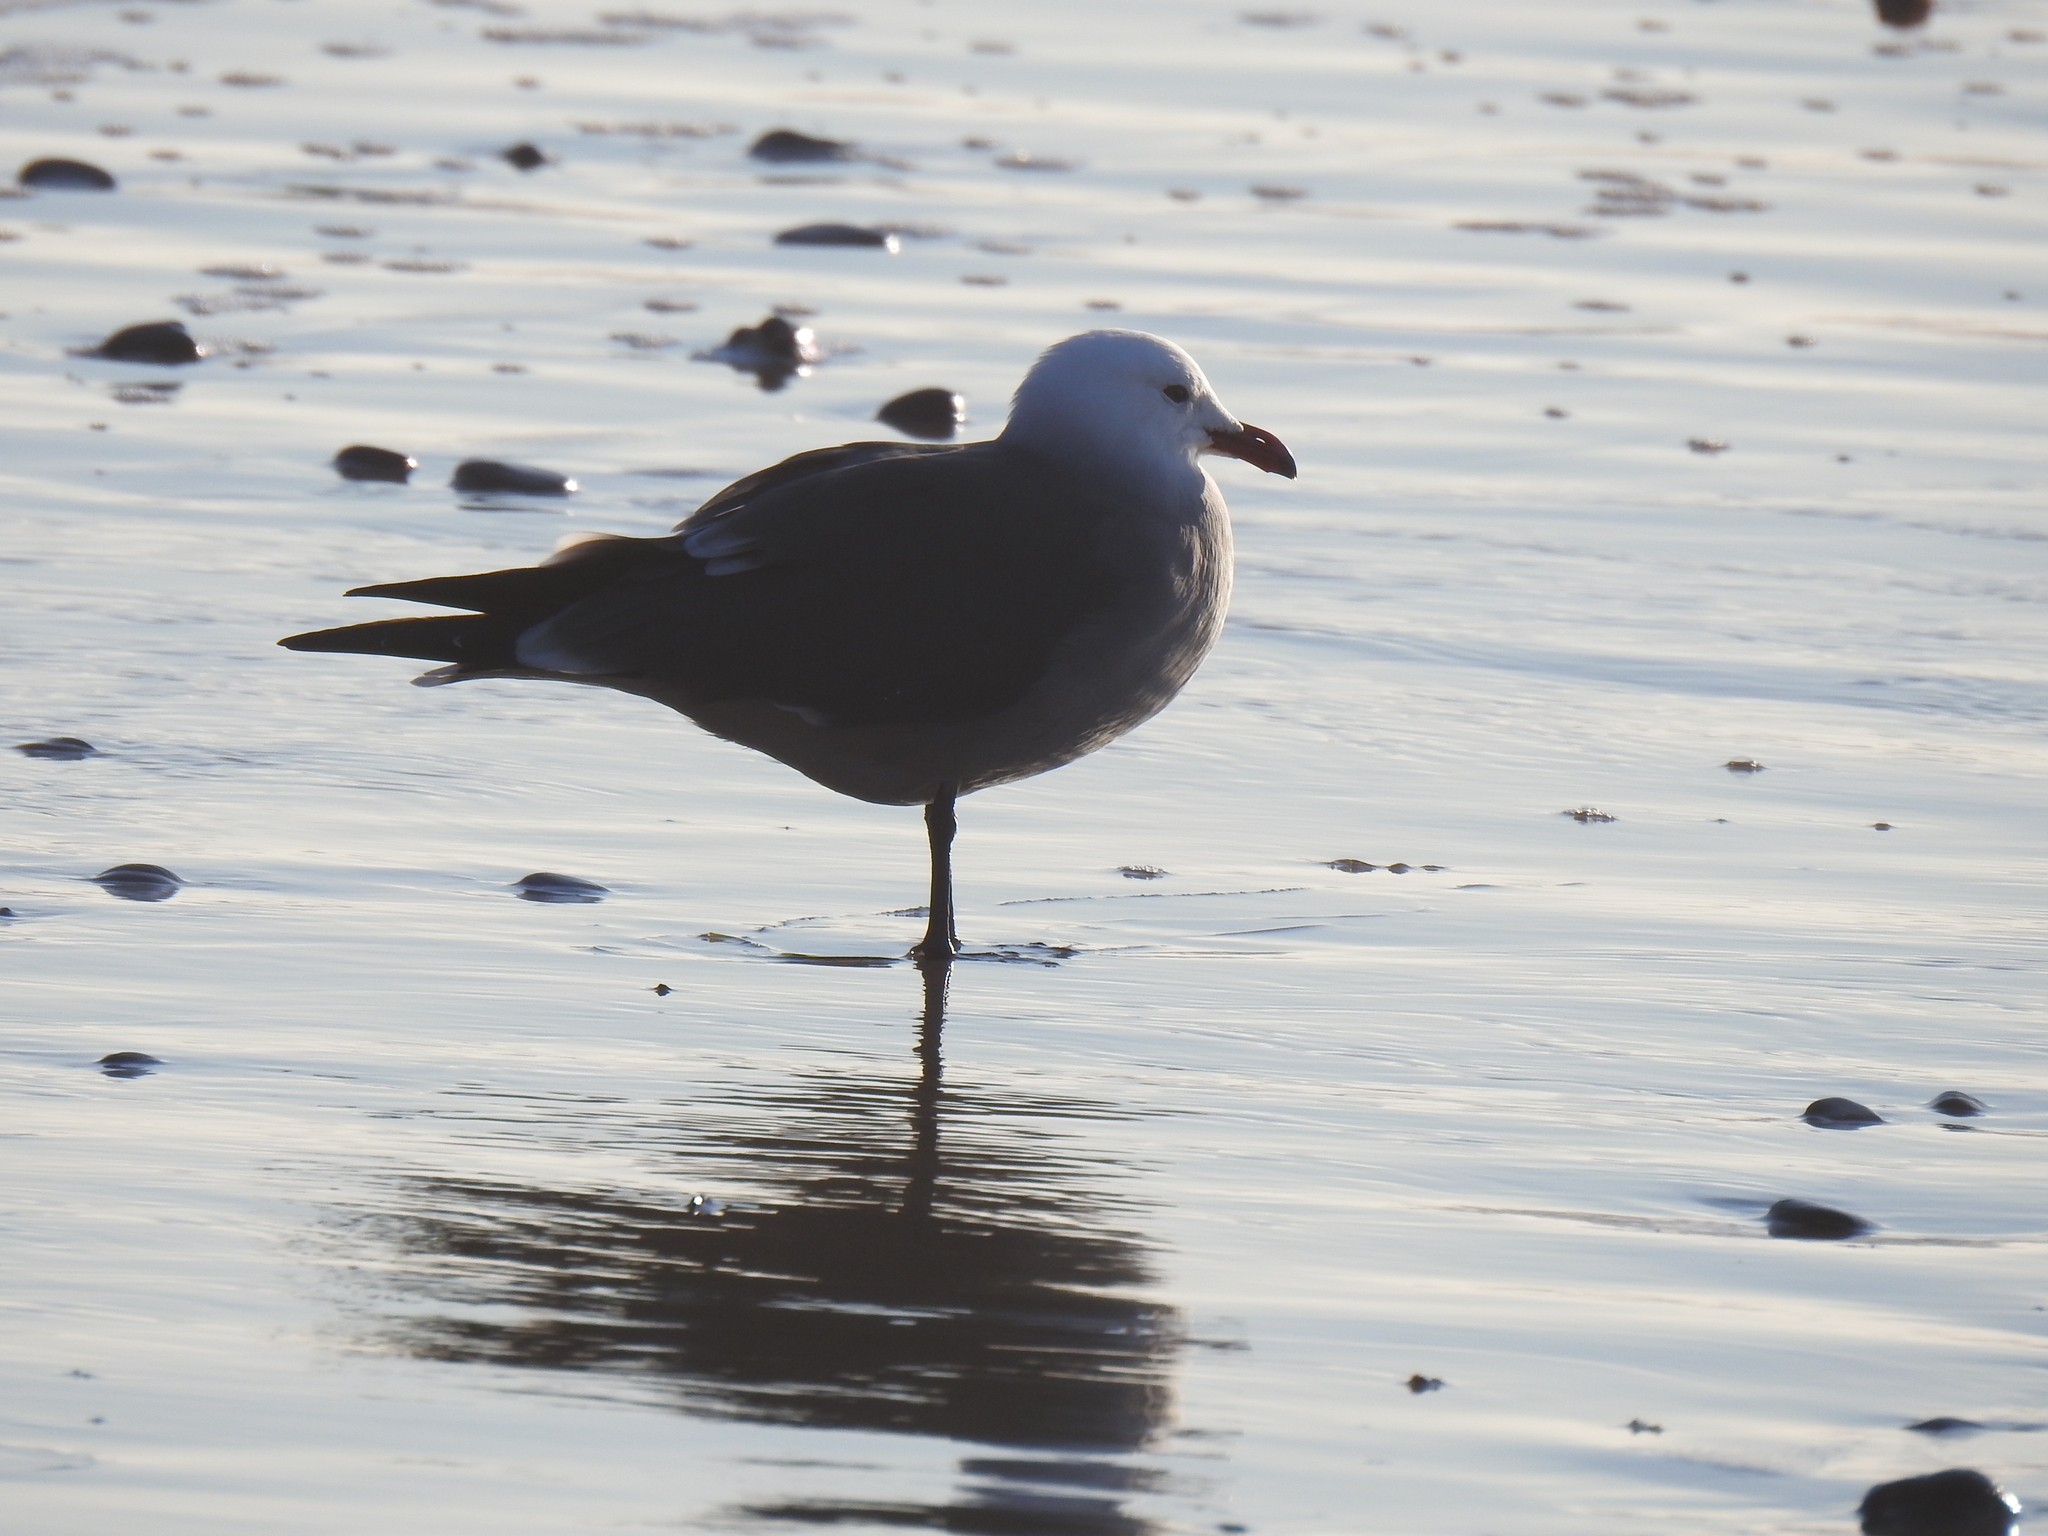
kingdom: Animalia
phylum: Chordata
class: Aves
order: Charadriiformes
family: Laridae
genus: Larus
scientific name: Larus heermanni
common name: Heermann's gull
